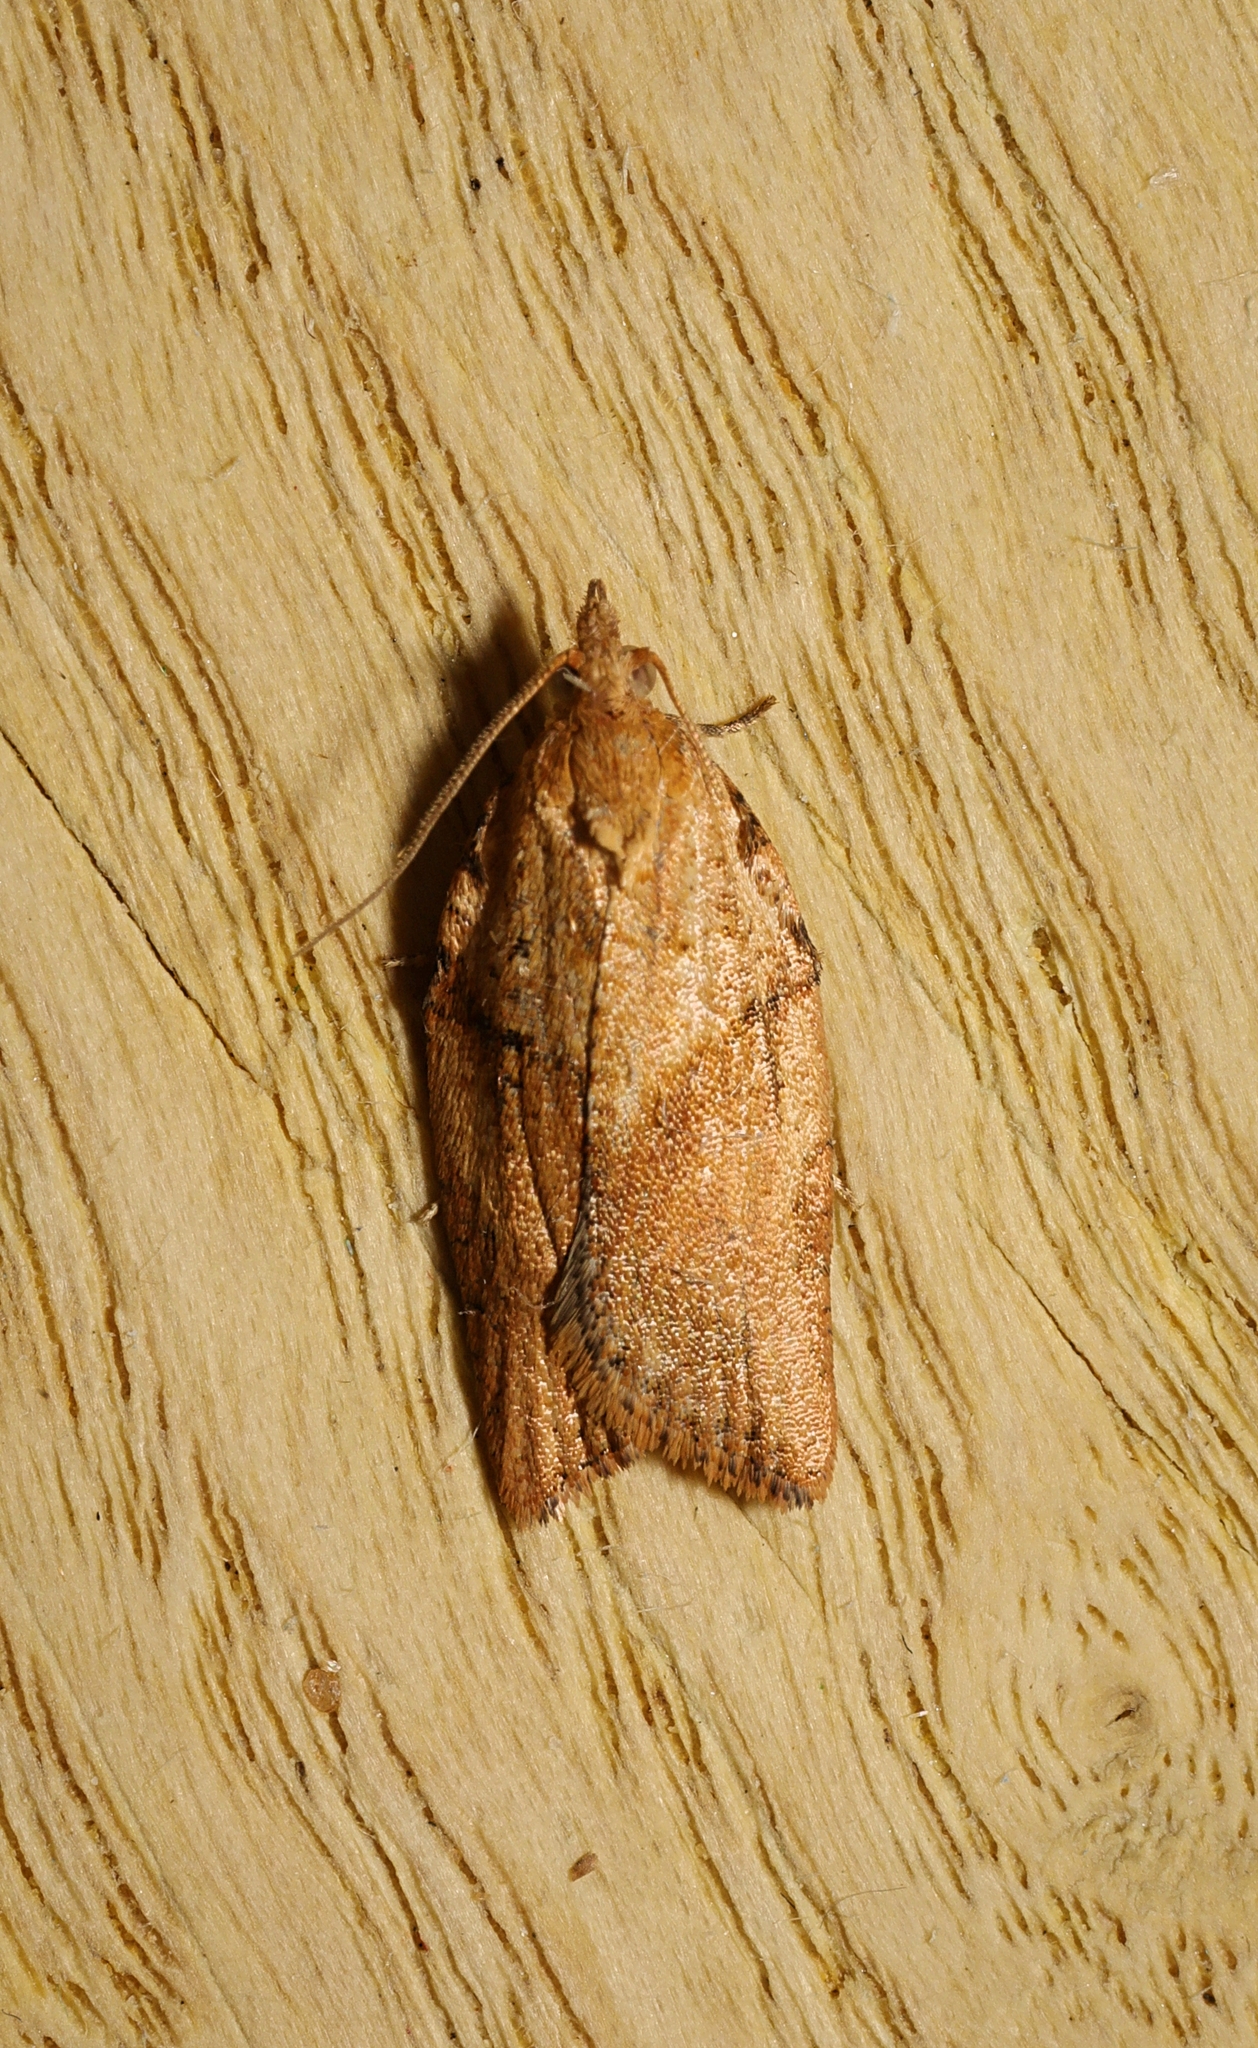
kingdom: Animalia
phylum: Arthropoda
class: Insecta
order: Lepidoptera
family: Tortricidae
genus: Epiphyas
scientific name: Epiphyas postvittana
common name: Light brown apple moth
